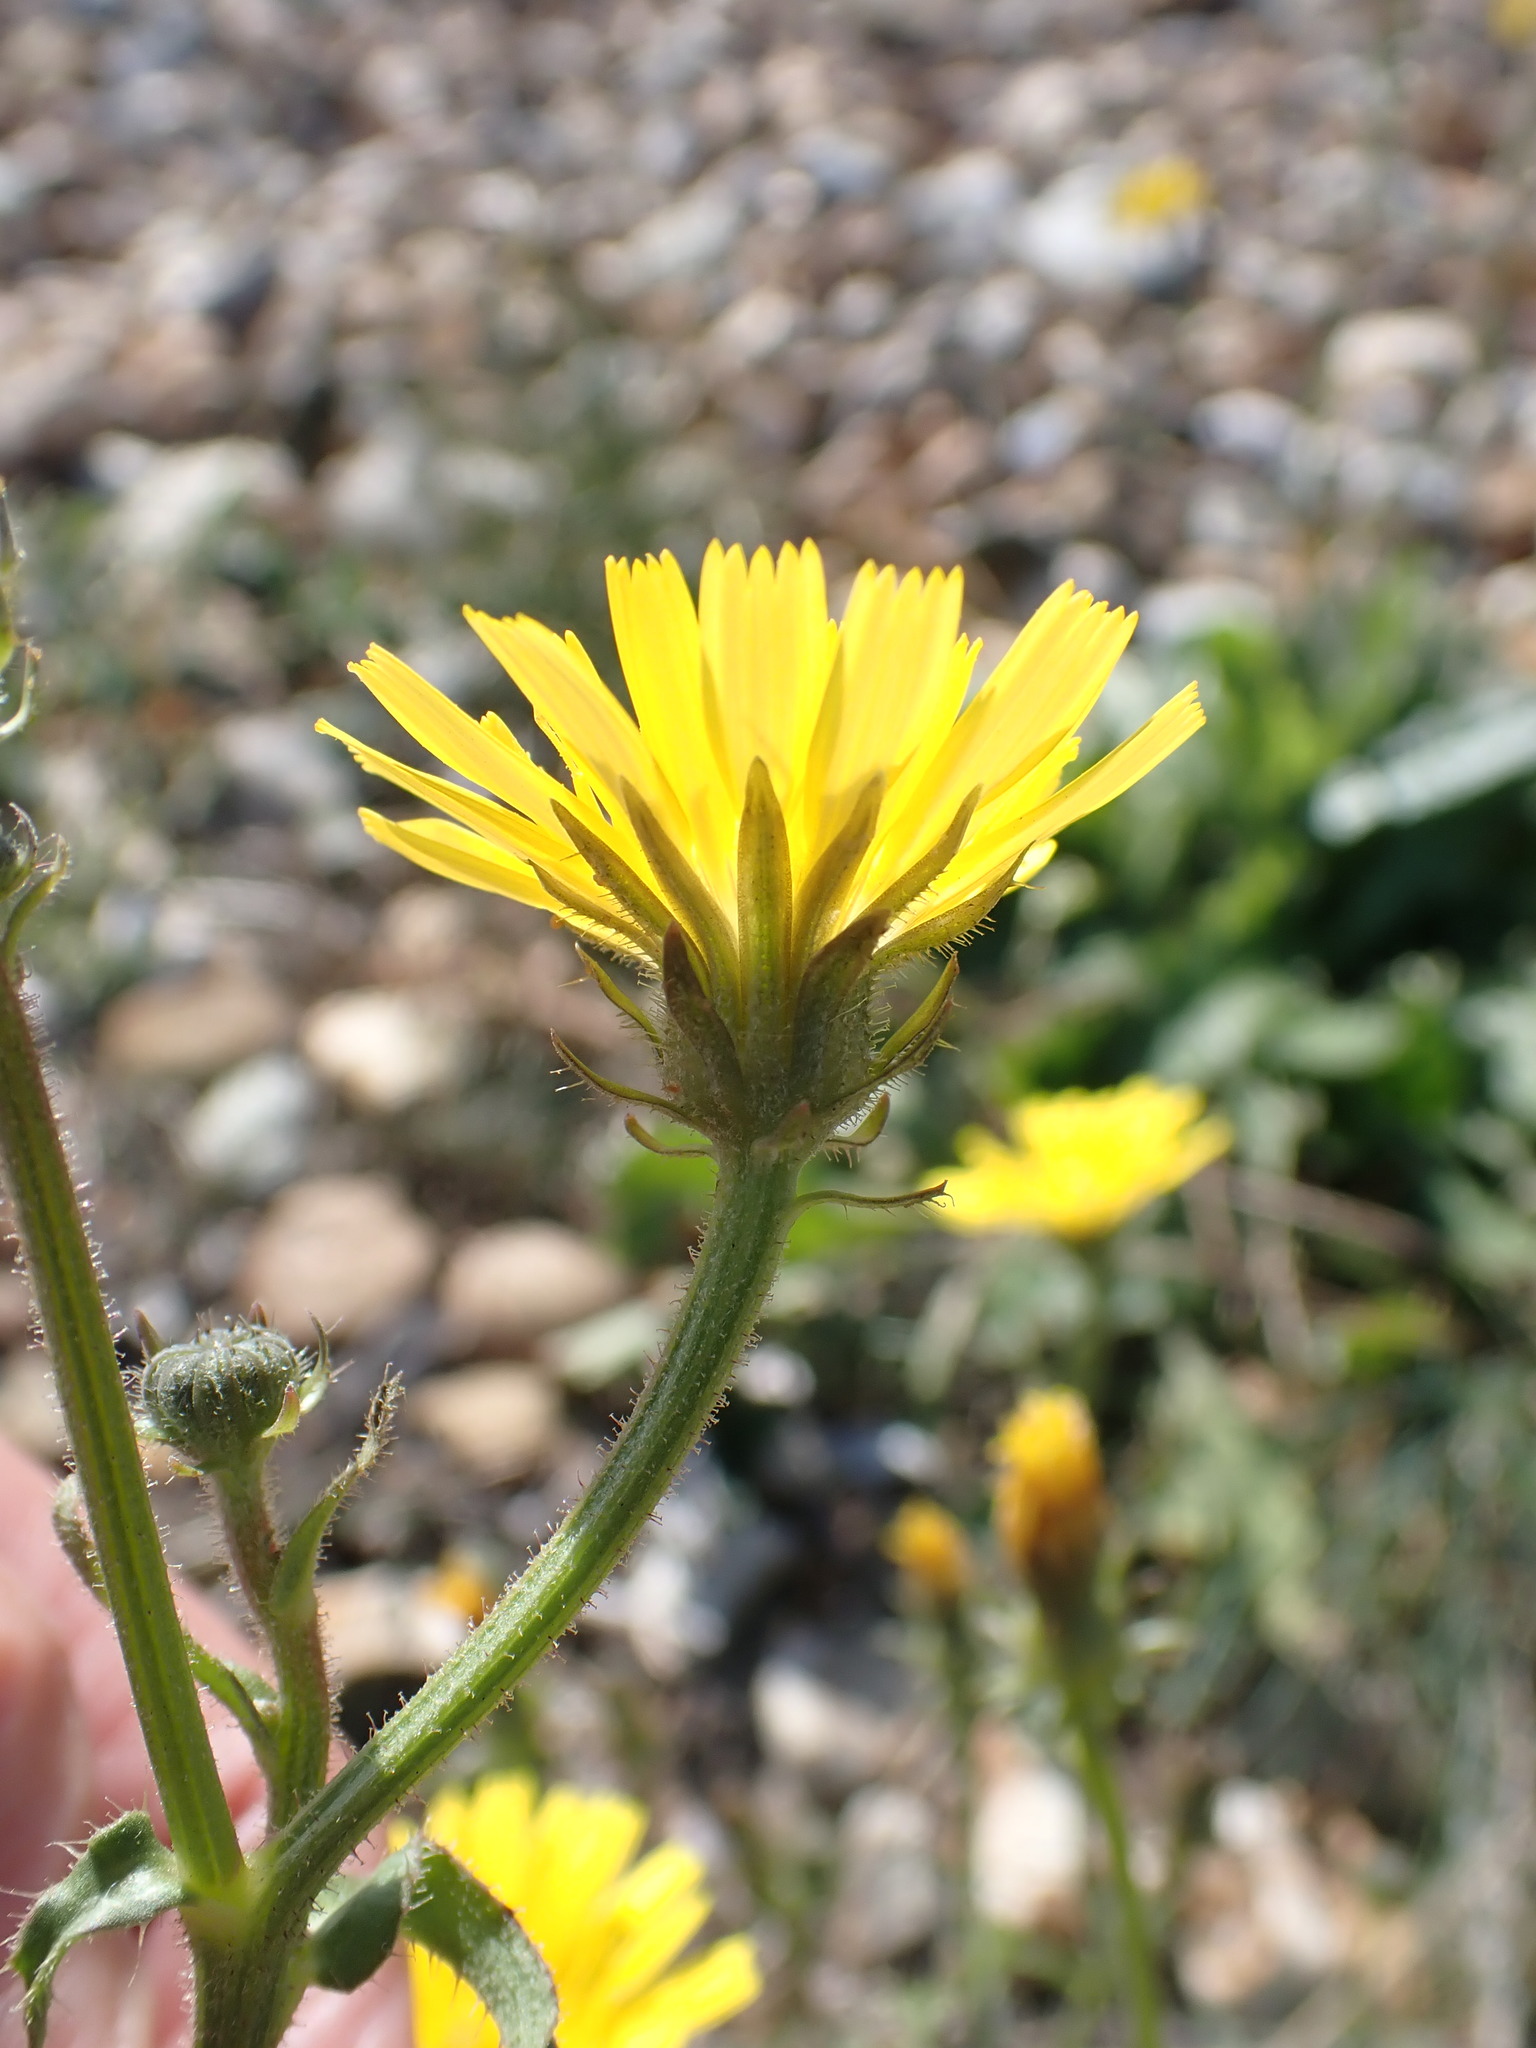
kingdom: Plantae
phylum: Tracheophyta
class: Magnoliopsida
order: Asterales
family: Asteraceae
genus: Picris
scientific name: Picris hieracioides
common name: Hawkweed oxtongue
